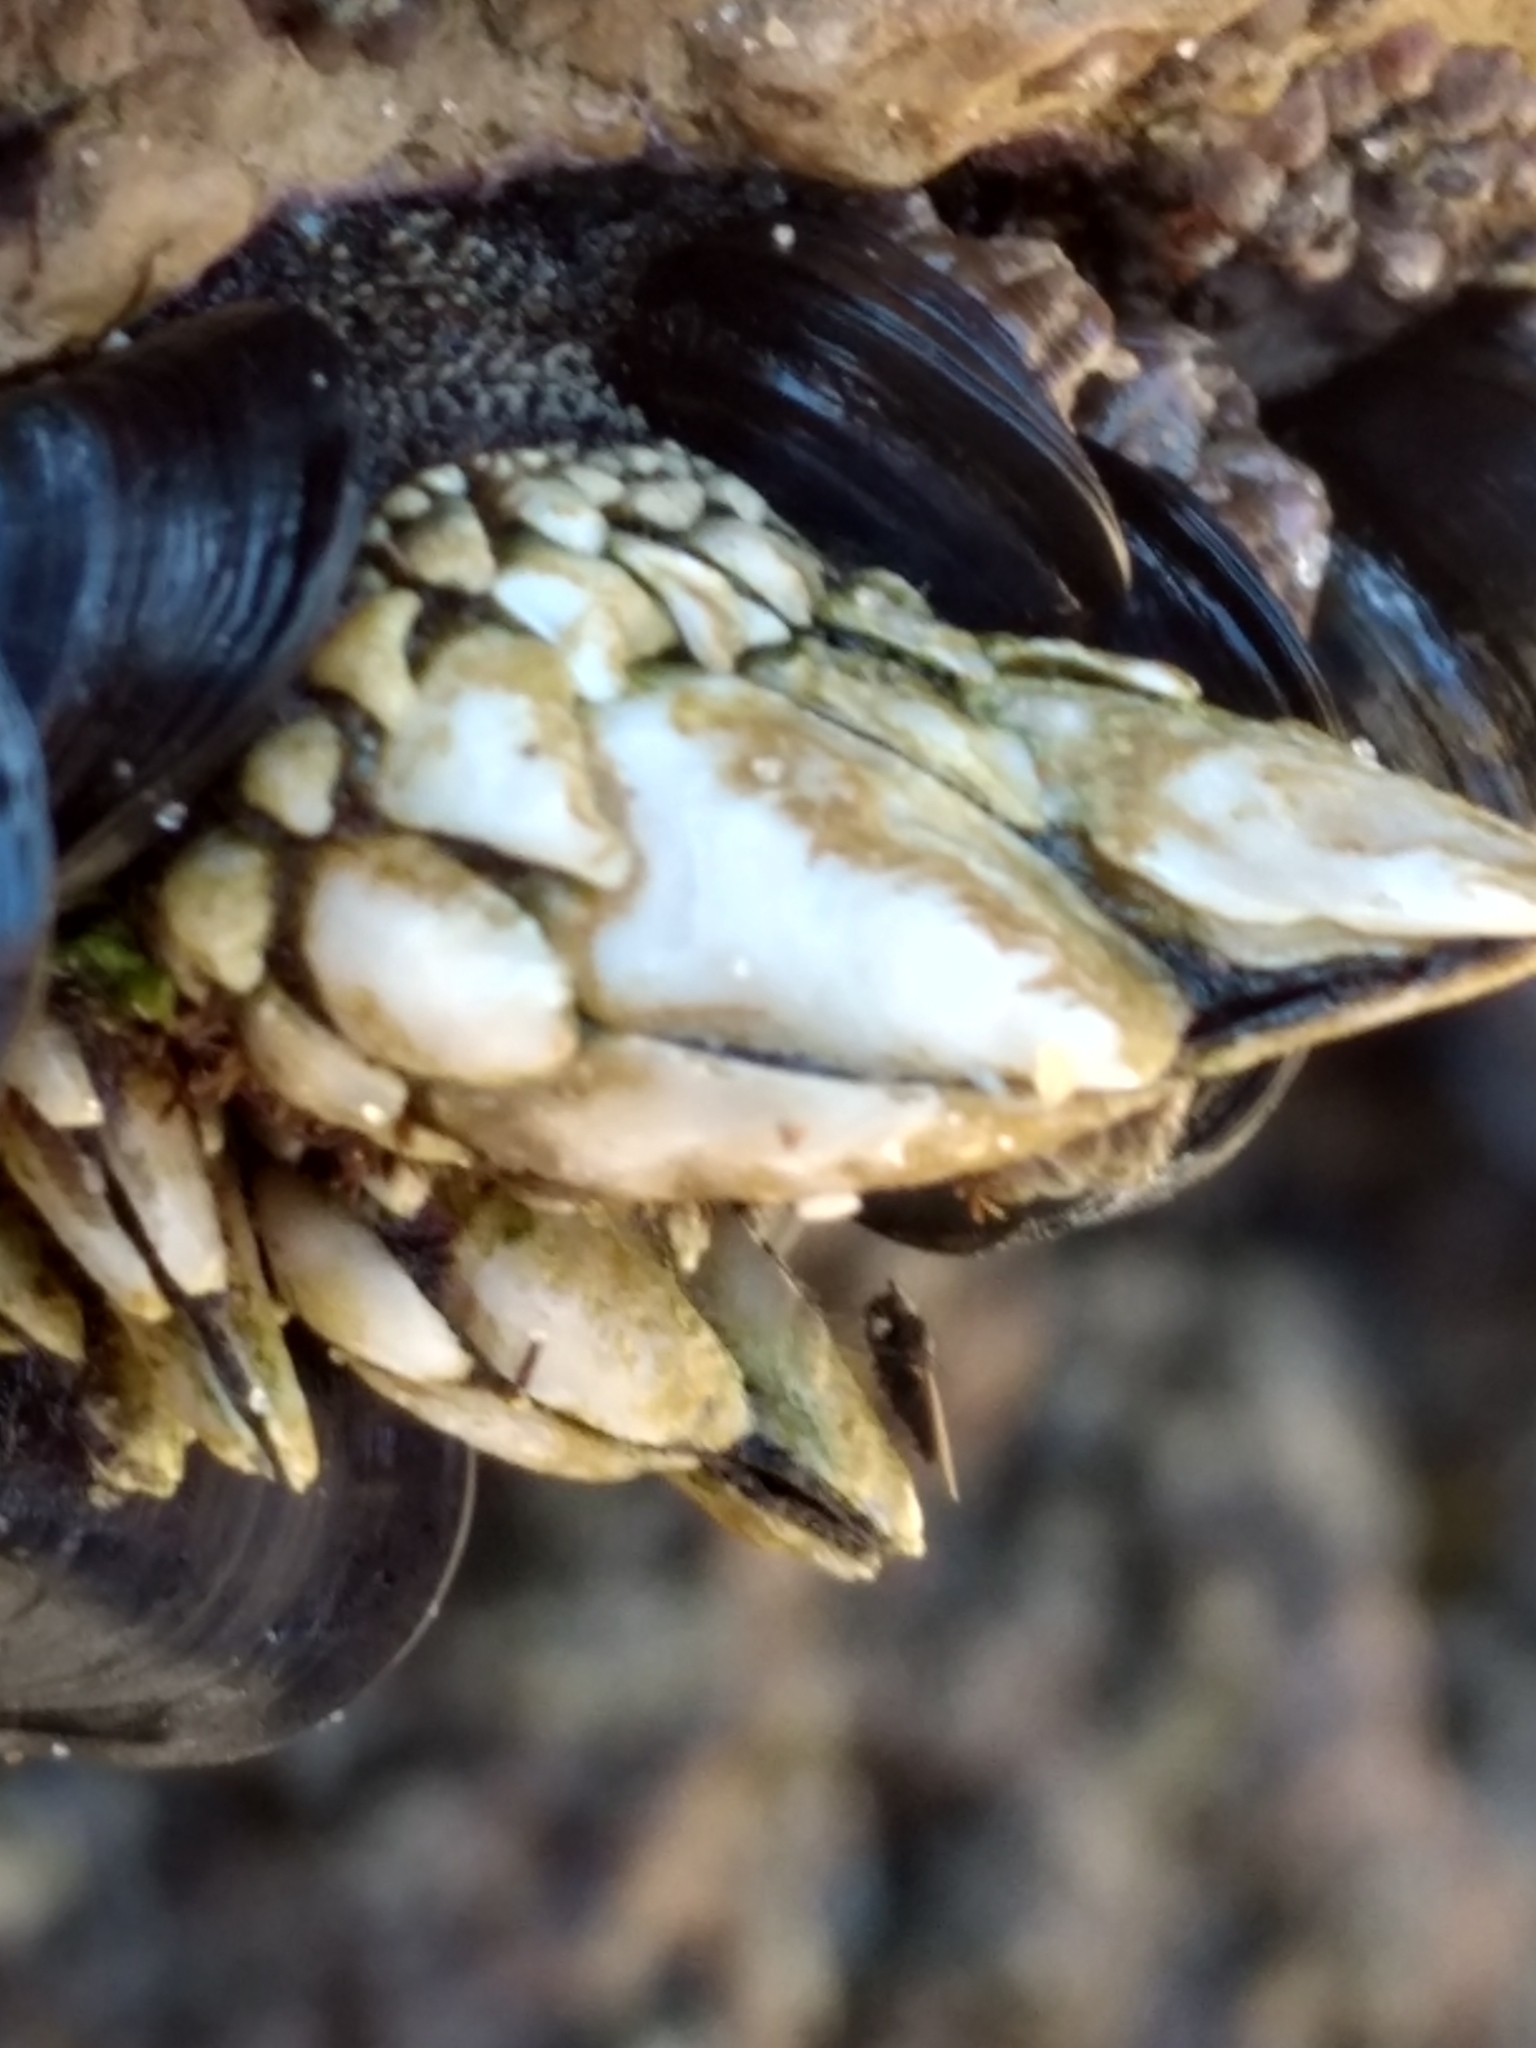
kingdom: Animalia
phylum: Arthropoda
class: Maxillopoda
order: Pedunculata
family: Pollicipedidae
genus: Pollicipes
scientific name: Pollicipes polymerus
